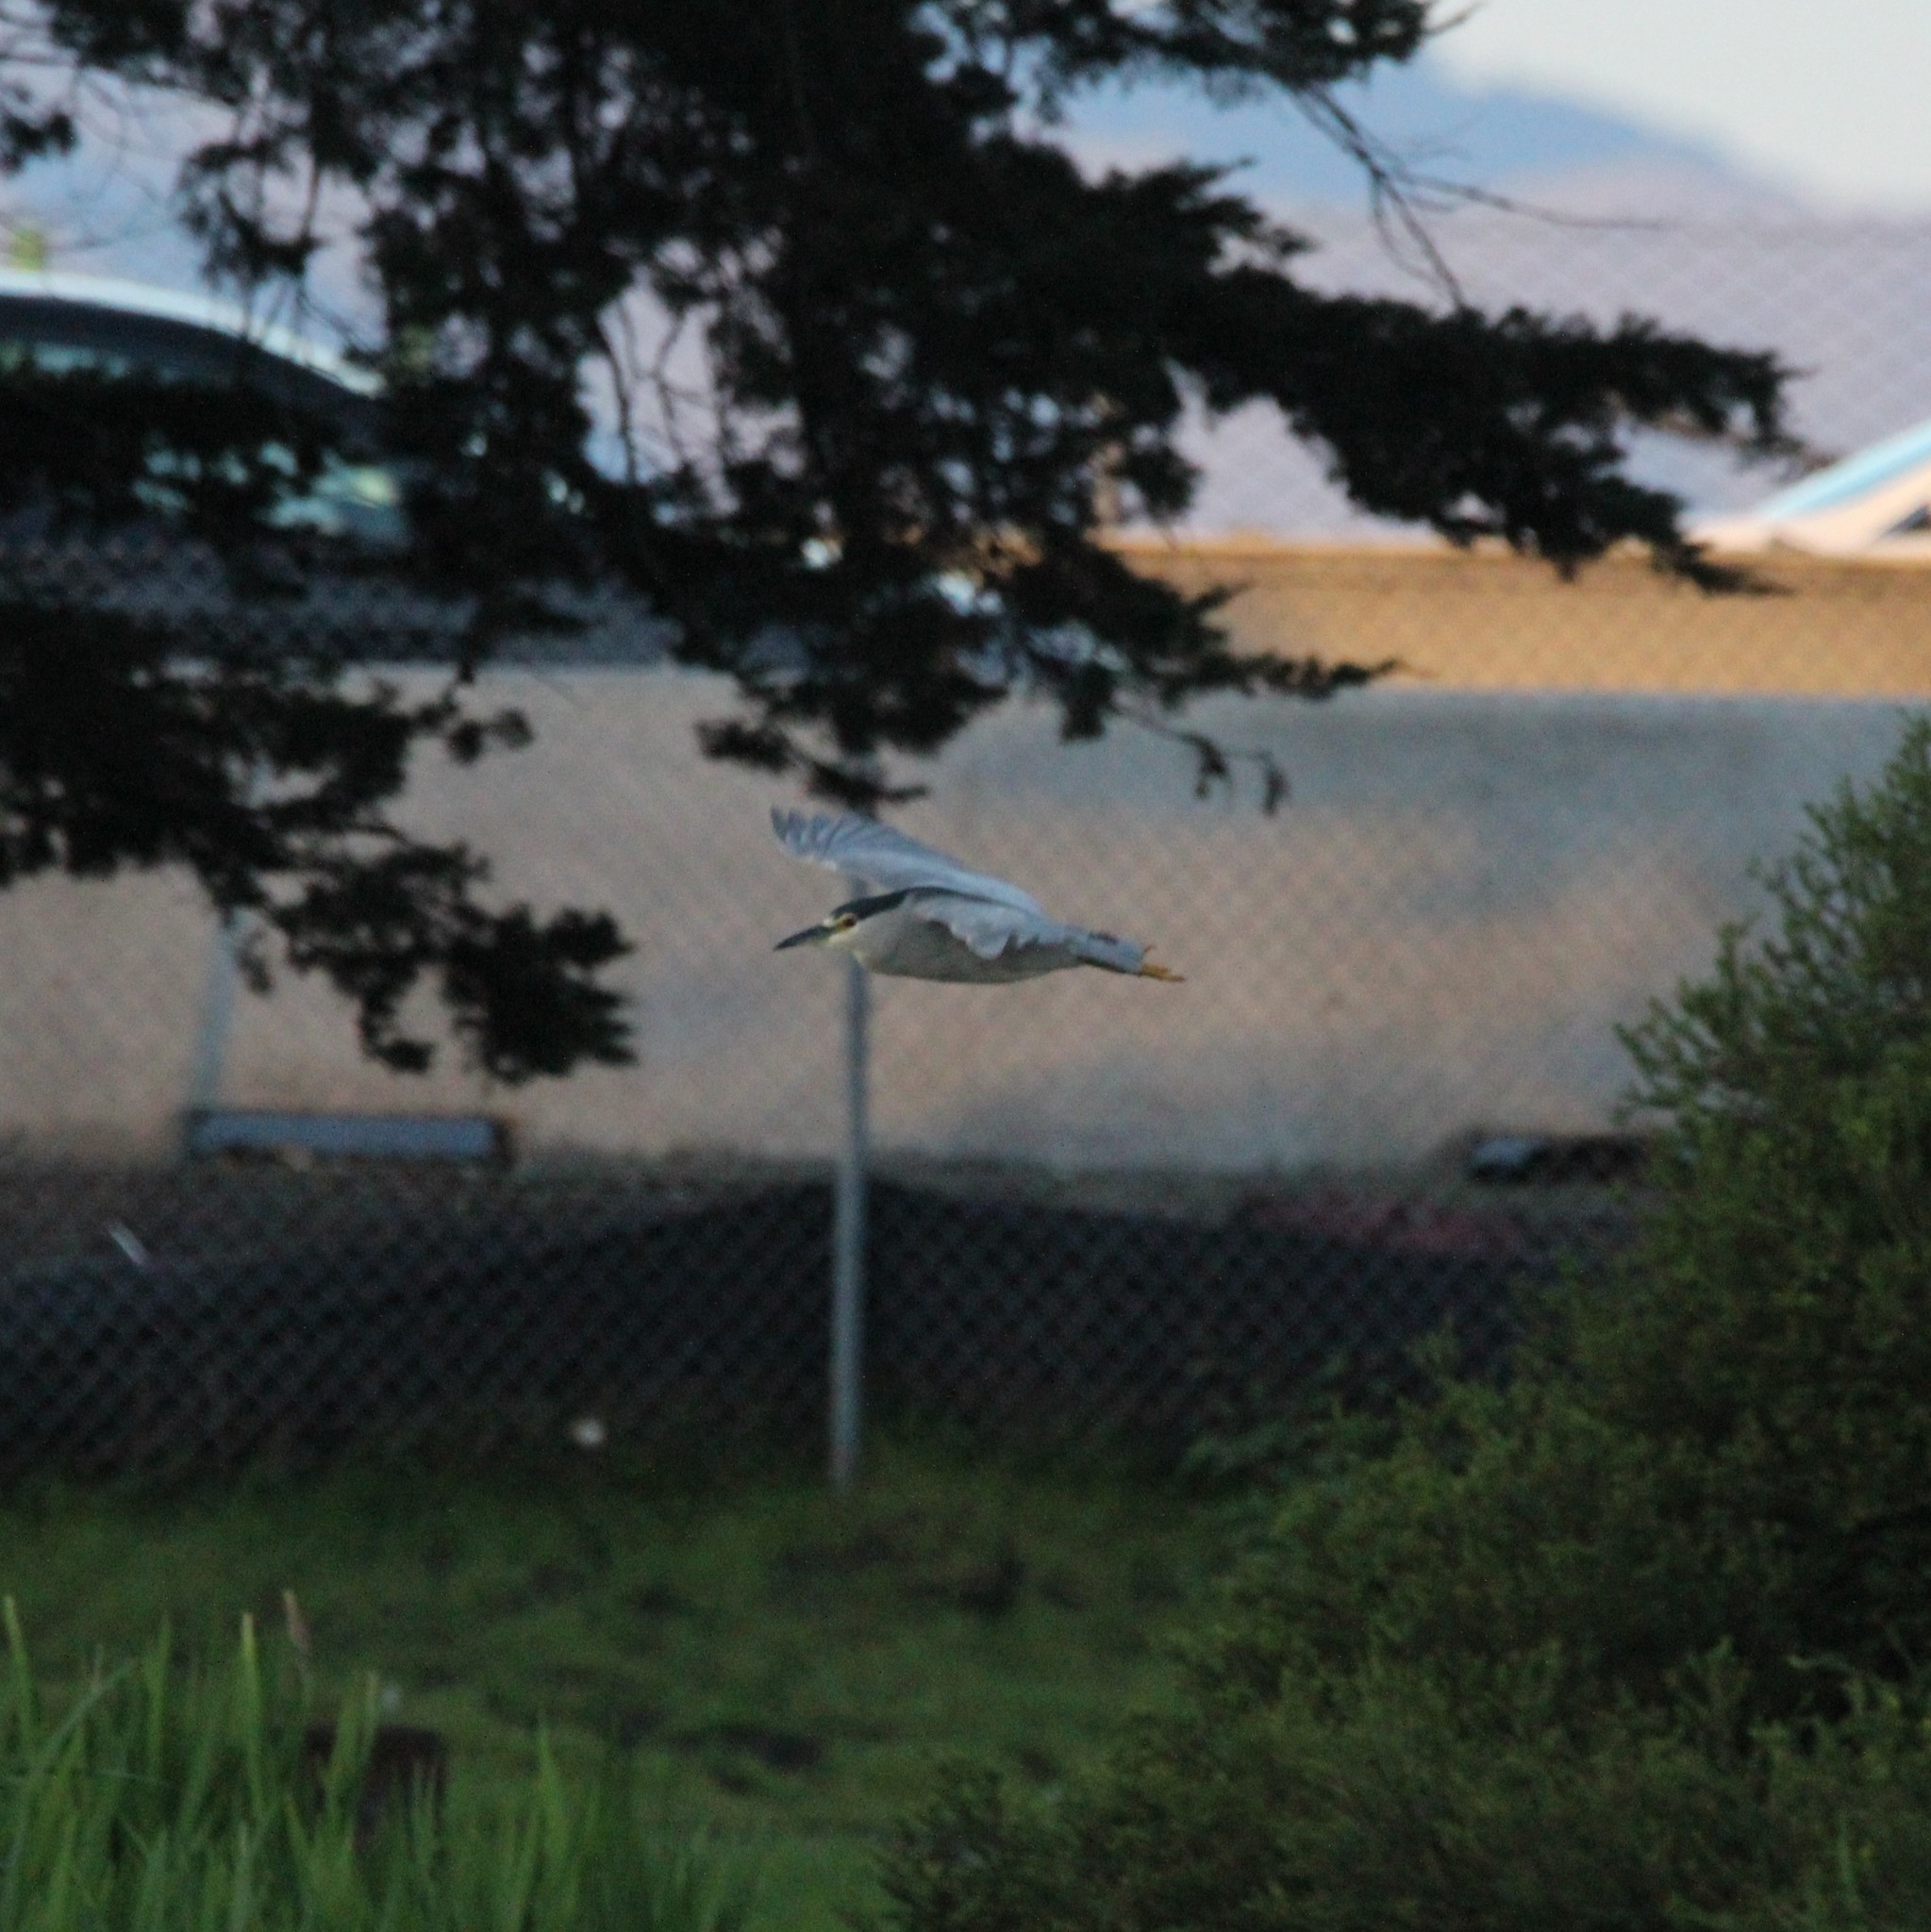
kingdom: Animalia
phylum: Chordata
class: Aves
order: Pelecaniformes
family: Ardeidae
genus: Nycticorax
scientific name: Nycticorax nycticorax
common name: Black-crowned night heron
